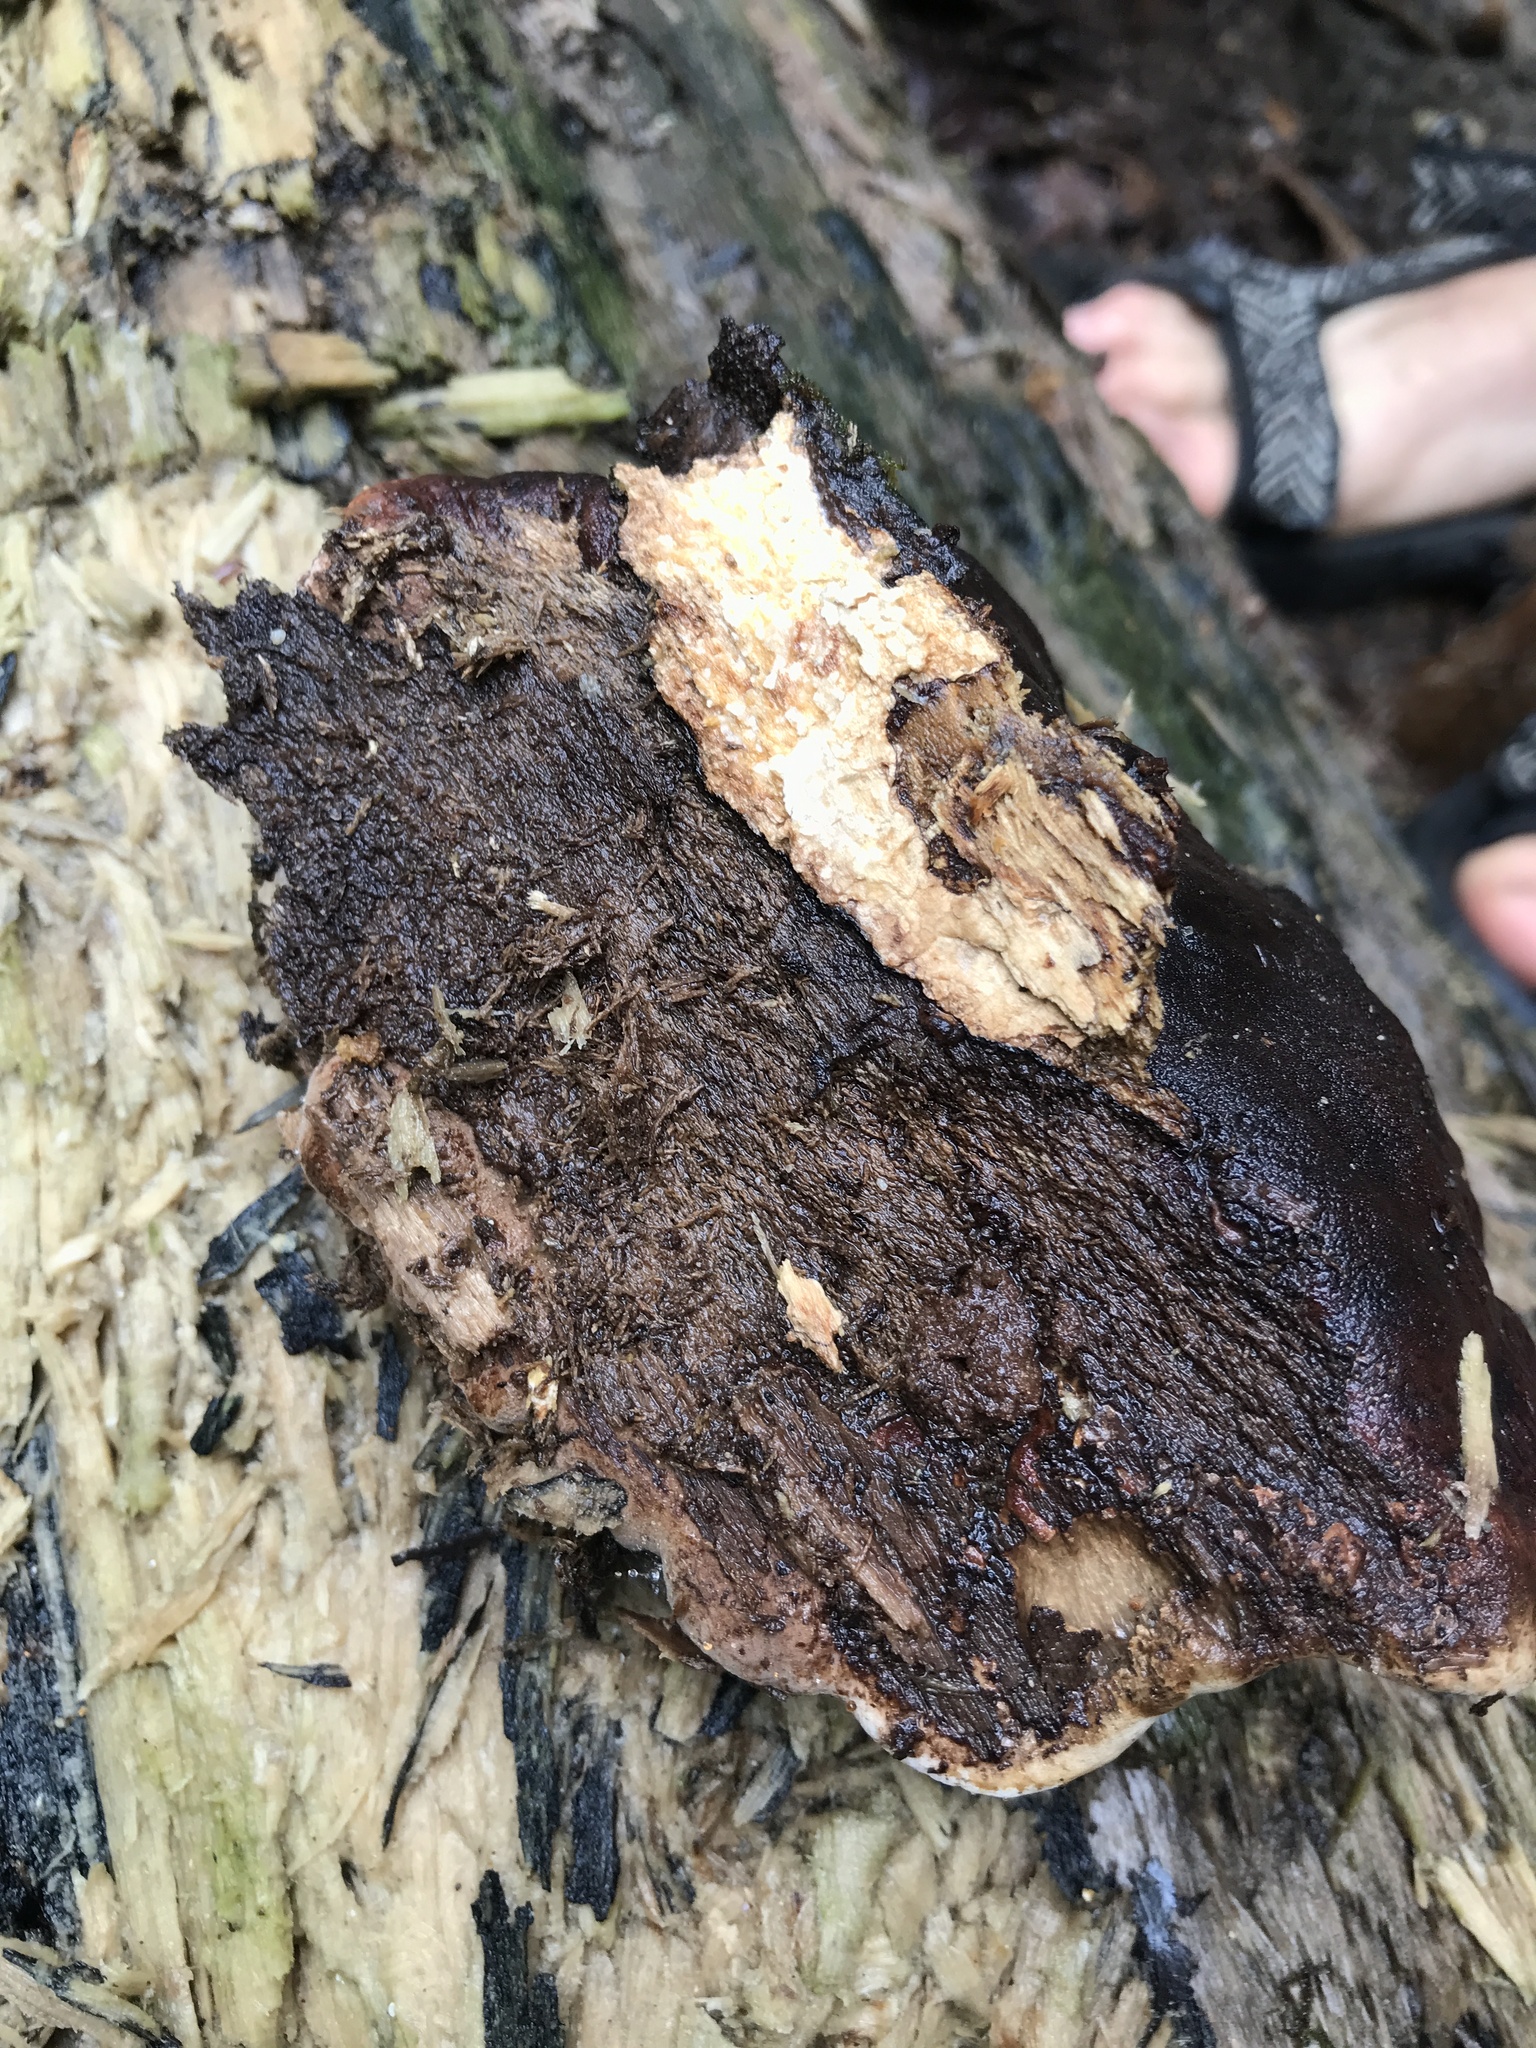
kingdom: Fungi
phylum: Basidiomycota
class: Agaricomycetes
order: Polyporales
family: Ischnodermataceae
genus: Ischnoderma
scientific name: Ischnoderma resinosum
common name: Resinous polypore
